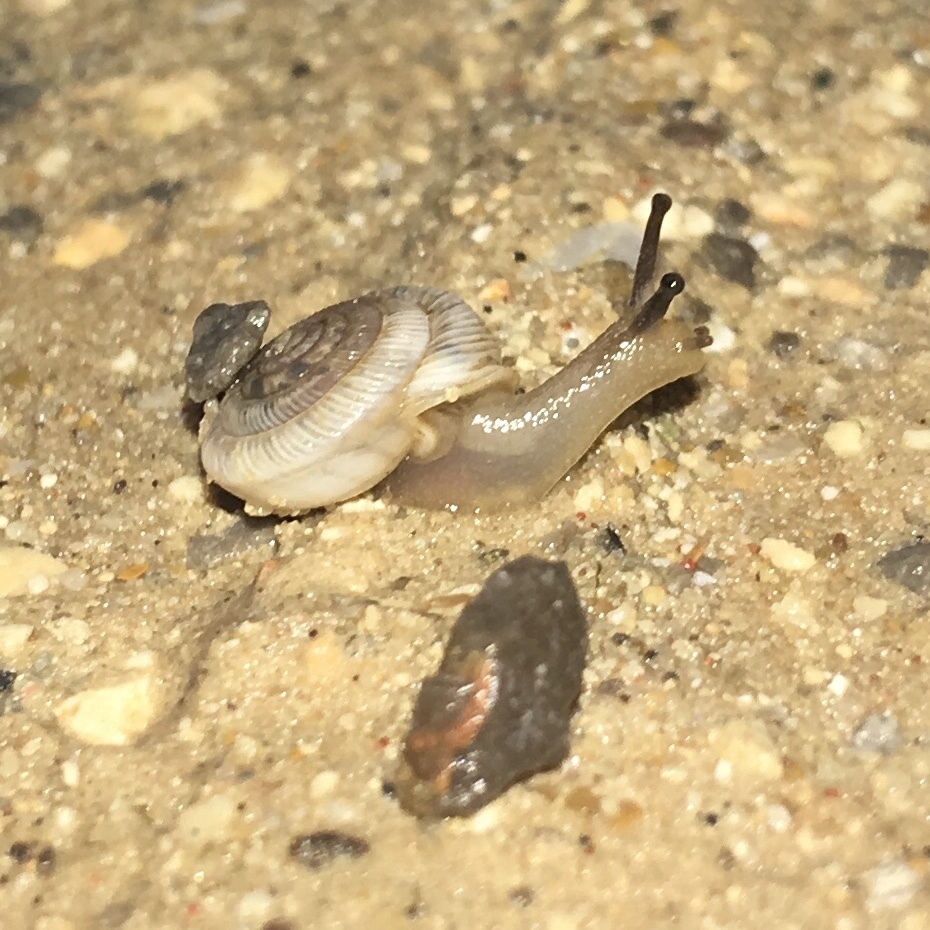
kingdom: Animalia
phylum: Mollusca
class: Gastropoda
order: Stylommatophora
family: Polygyridae
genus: Polygyra
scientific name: Polygyra cereolus
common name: Southern flatcone snail
